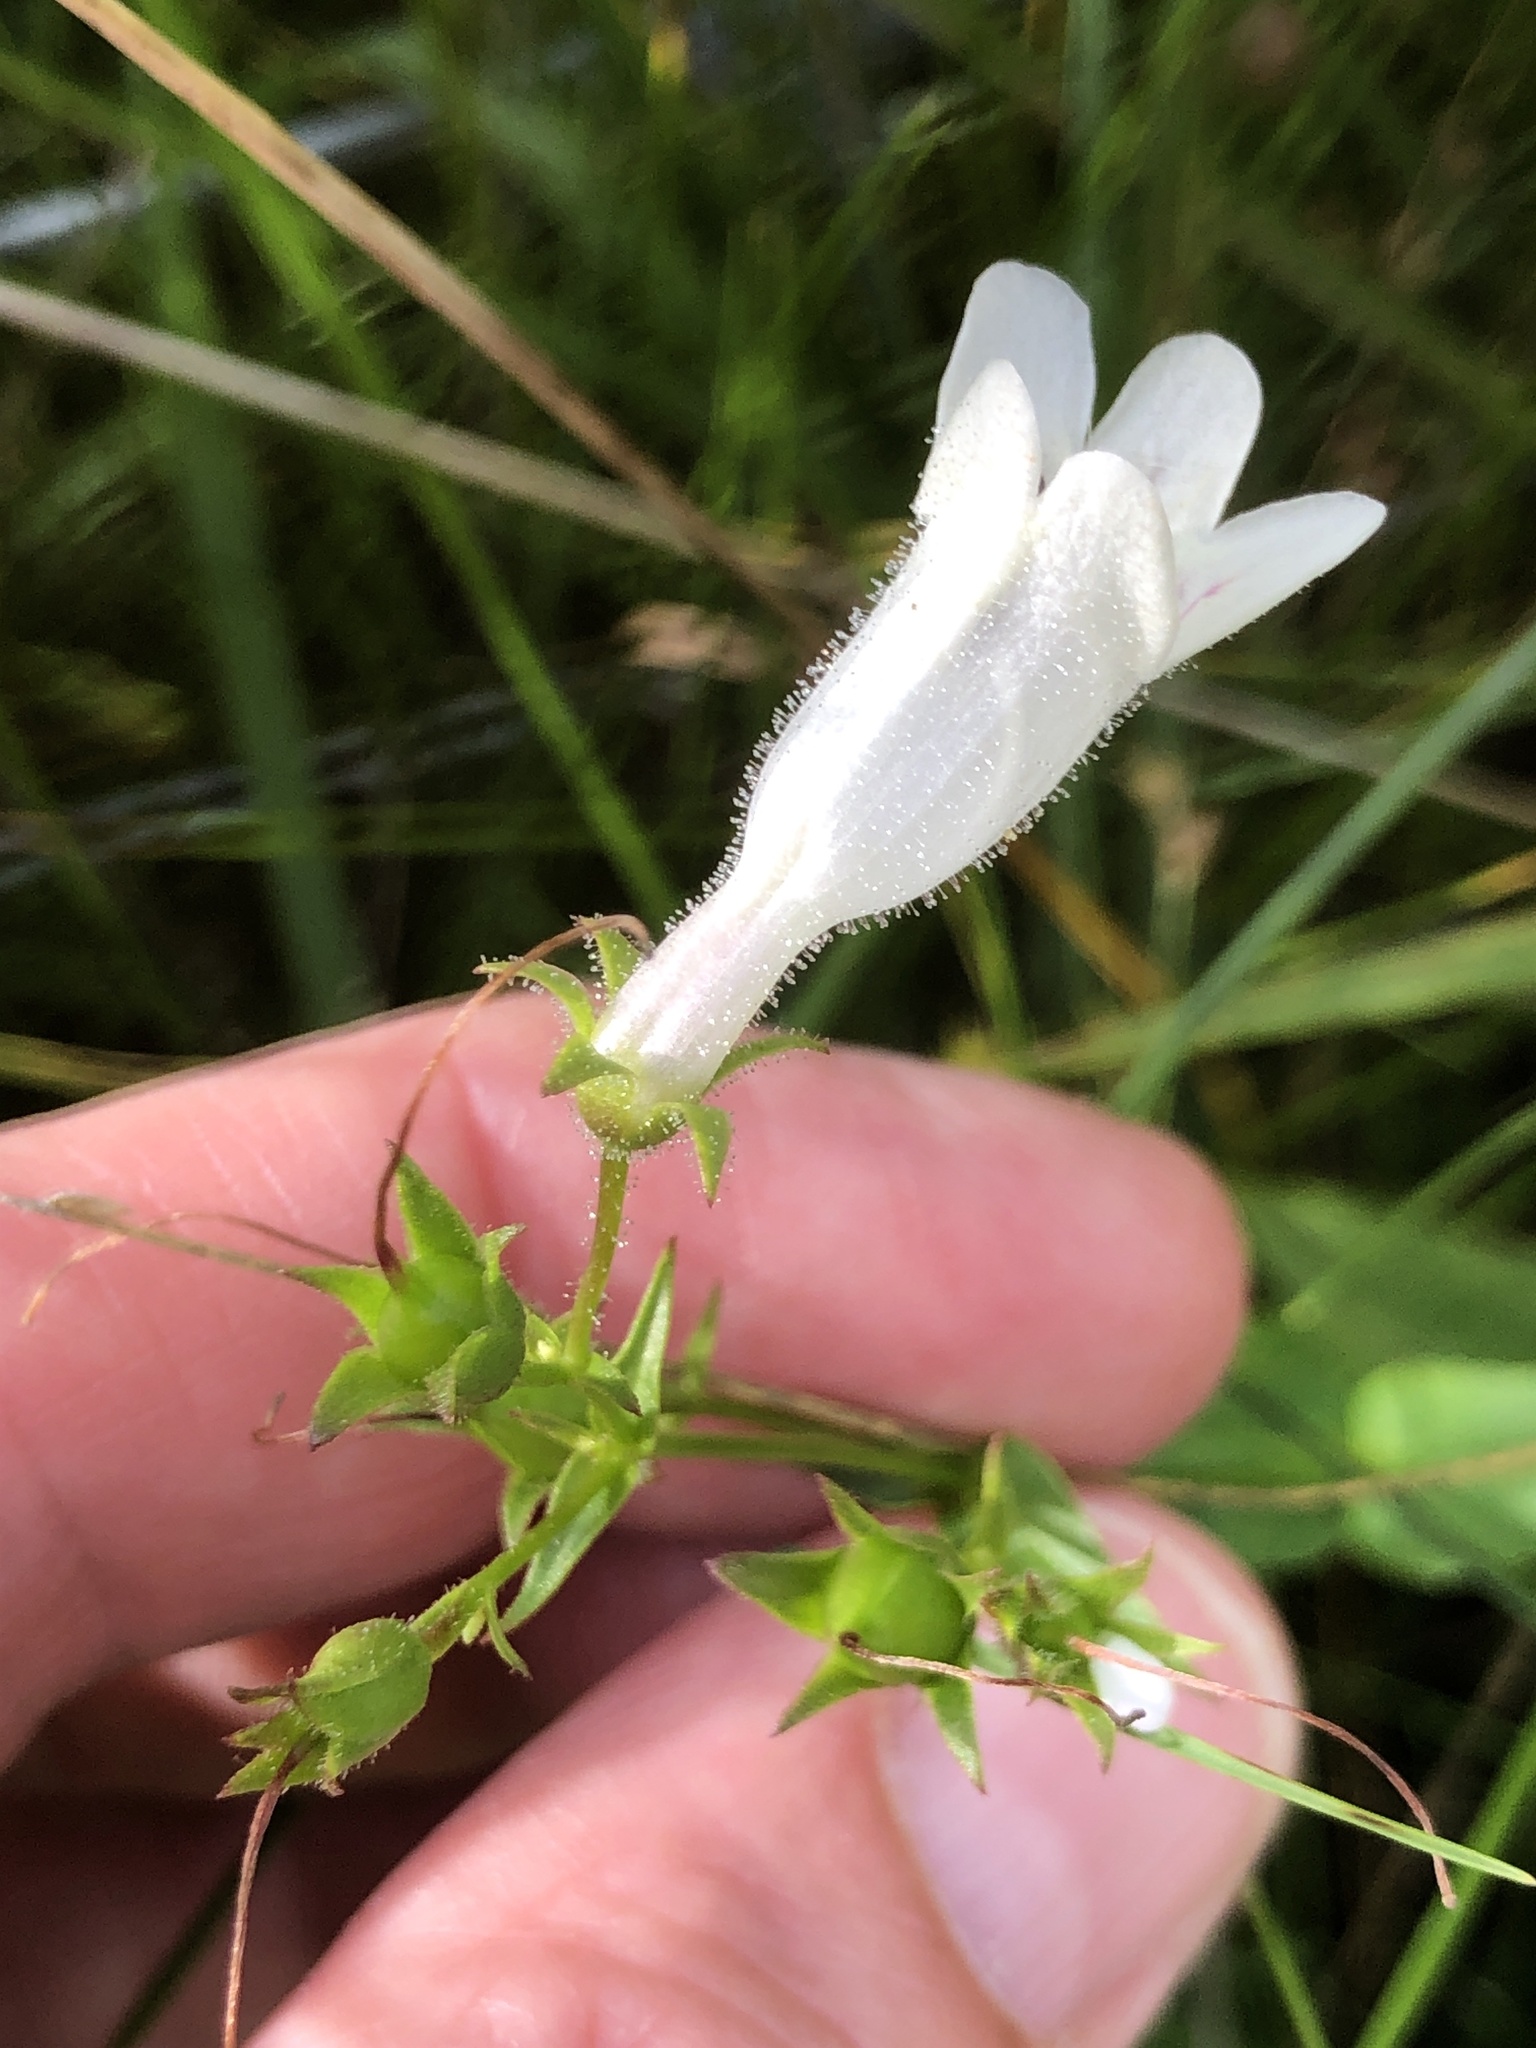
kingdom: Plantae
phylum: Tracheophyta
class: Magnoliopsida
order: Lamiales
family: Plantaginaceae
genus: Penstemon
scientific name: Penstemon digitalis
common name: Foxglove beardtongue
